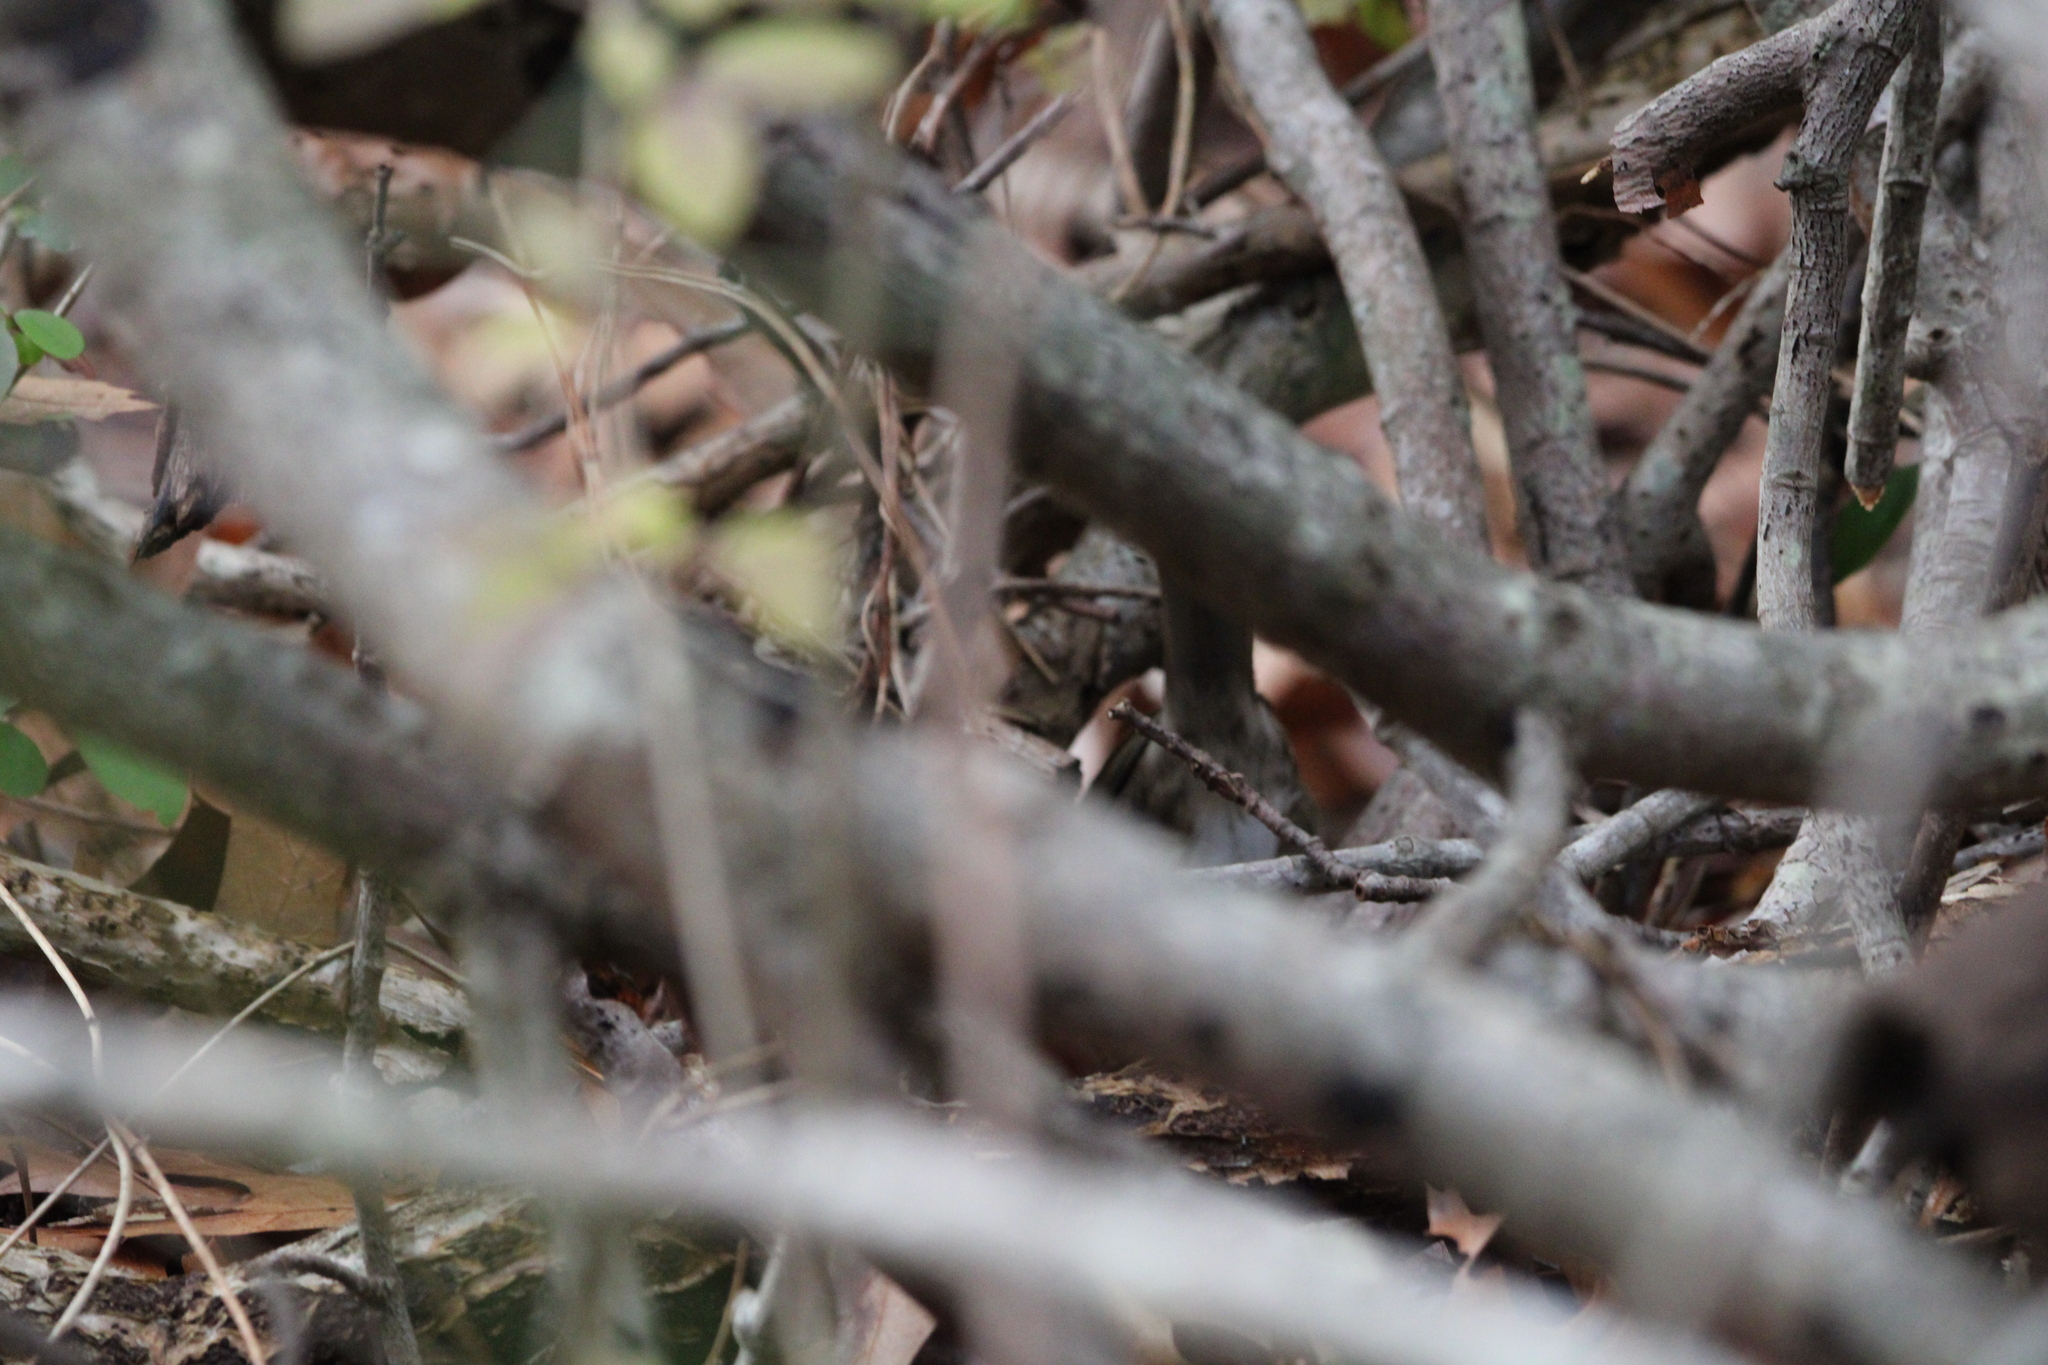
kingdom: Animalia
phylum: Chordata
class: Aves
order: Passeriformes
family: Passerellidae
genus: Zonotrichia
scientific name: Zonotrichia albicollis
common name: White-throated sparrow
